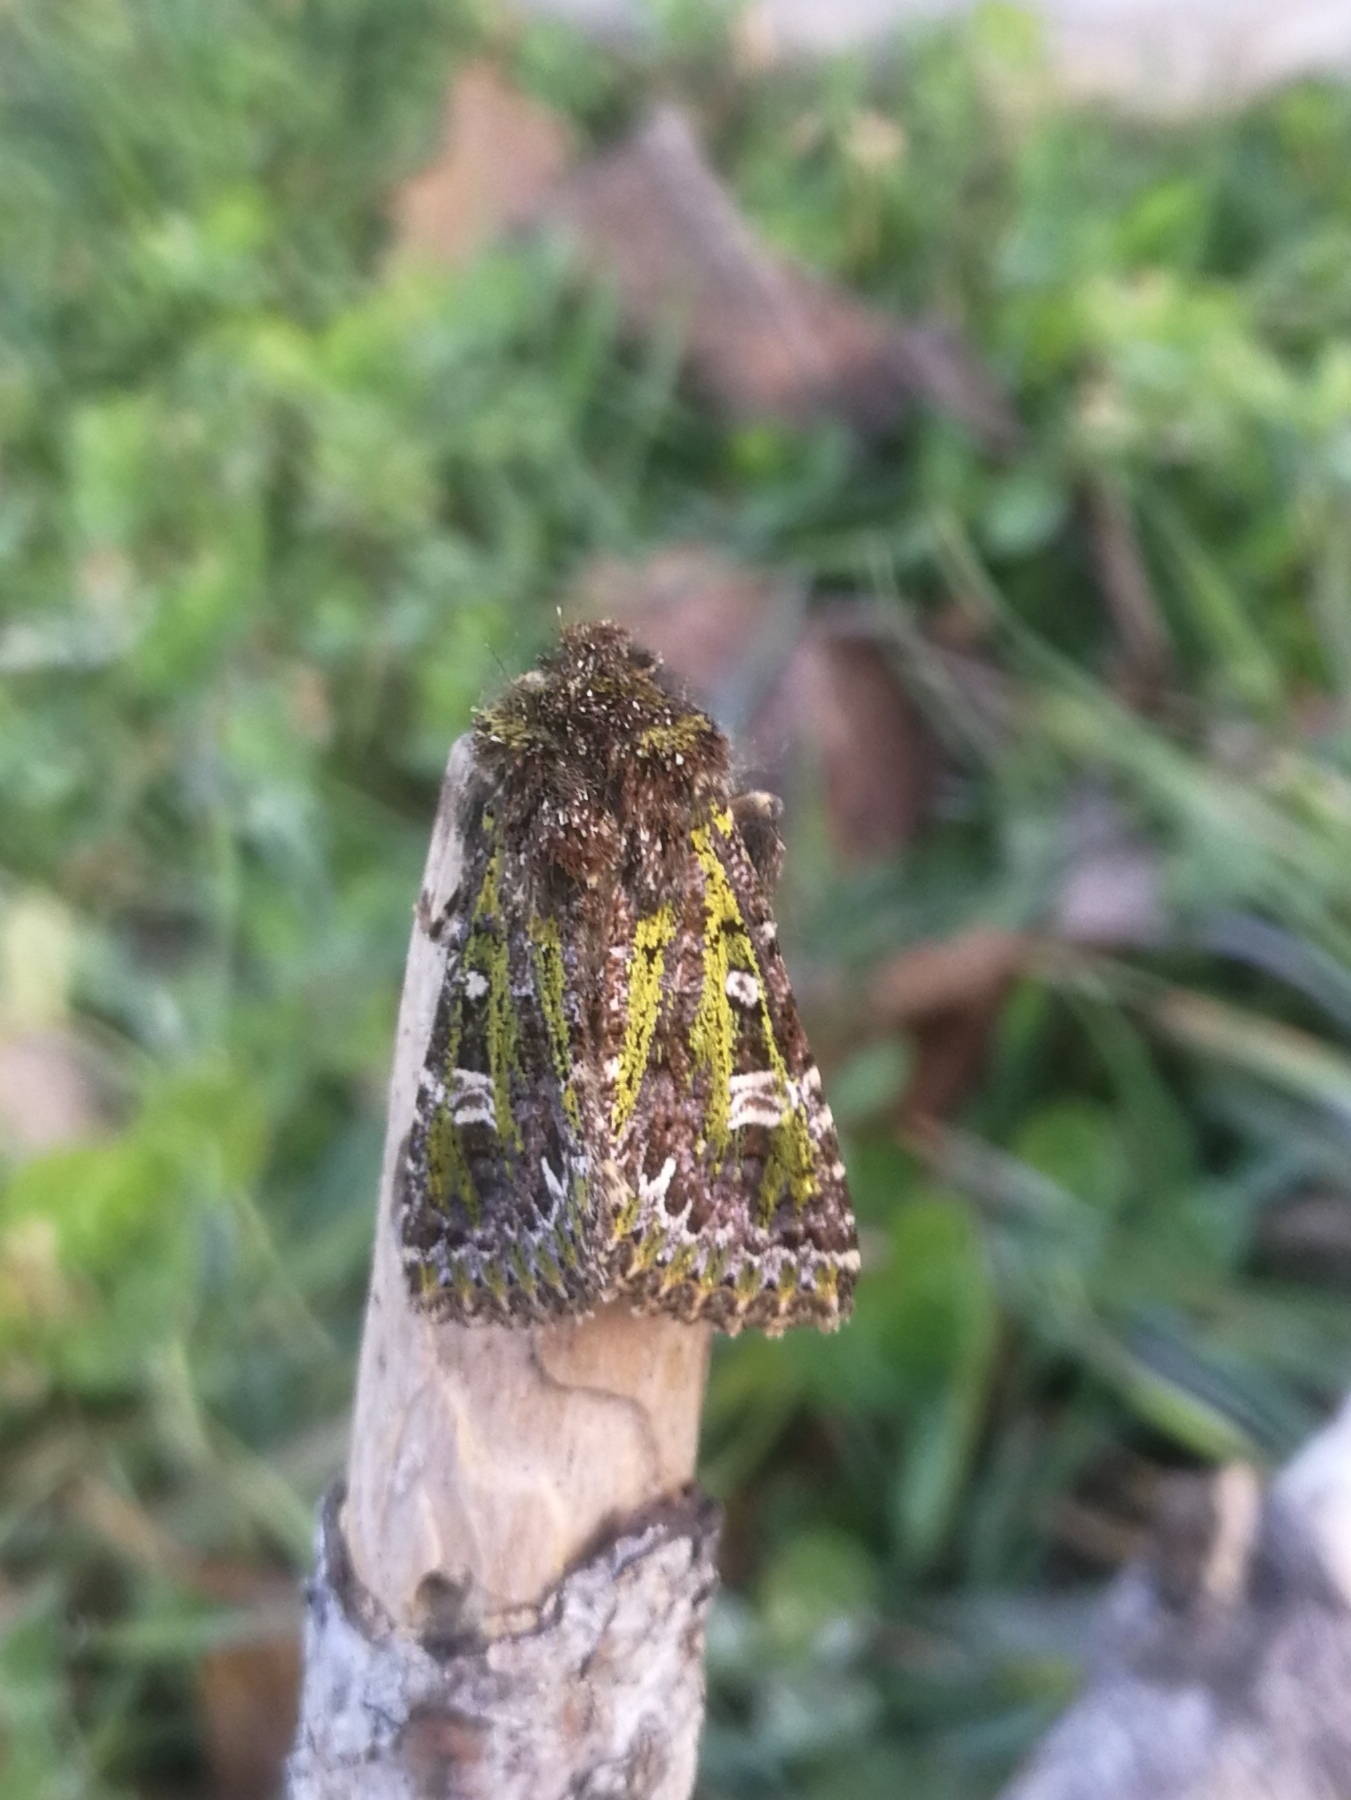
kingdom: Animalia
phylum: Arthropoda
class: Insecta
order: Lepidoptera
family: Noctuidae
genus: Valeria
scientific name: Valeria jaspidea
